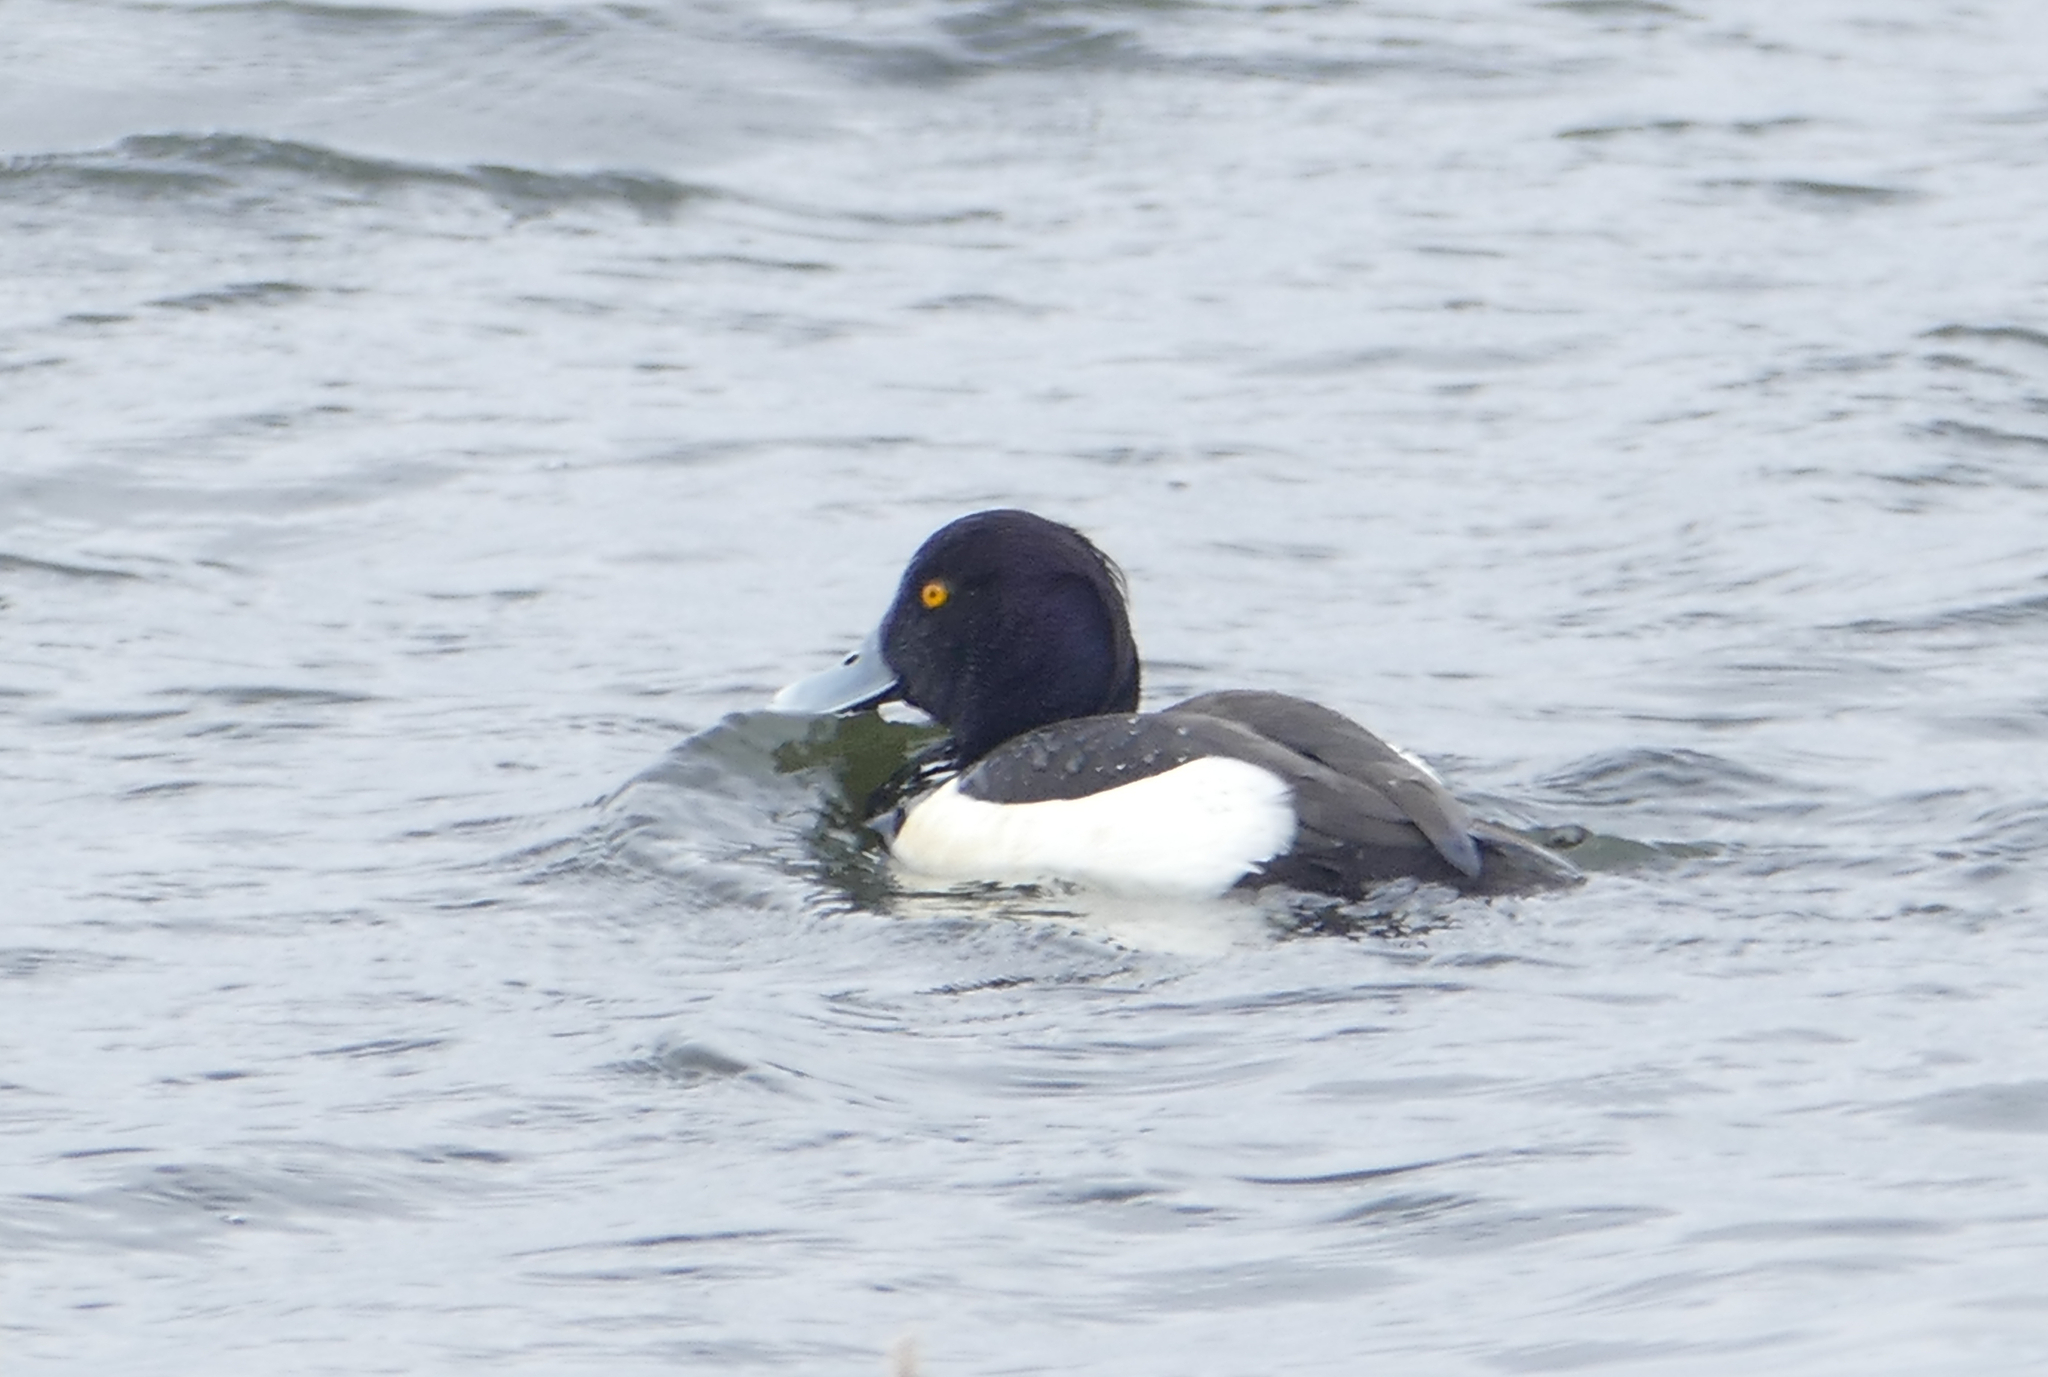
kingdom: Animalia
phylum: Chordata
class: Aves
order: Anseriformes
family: Anatidae
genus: Aythya
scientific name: Aythya fuligula
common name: Tufted duck
